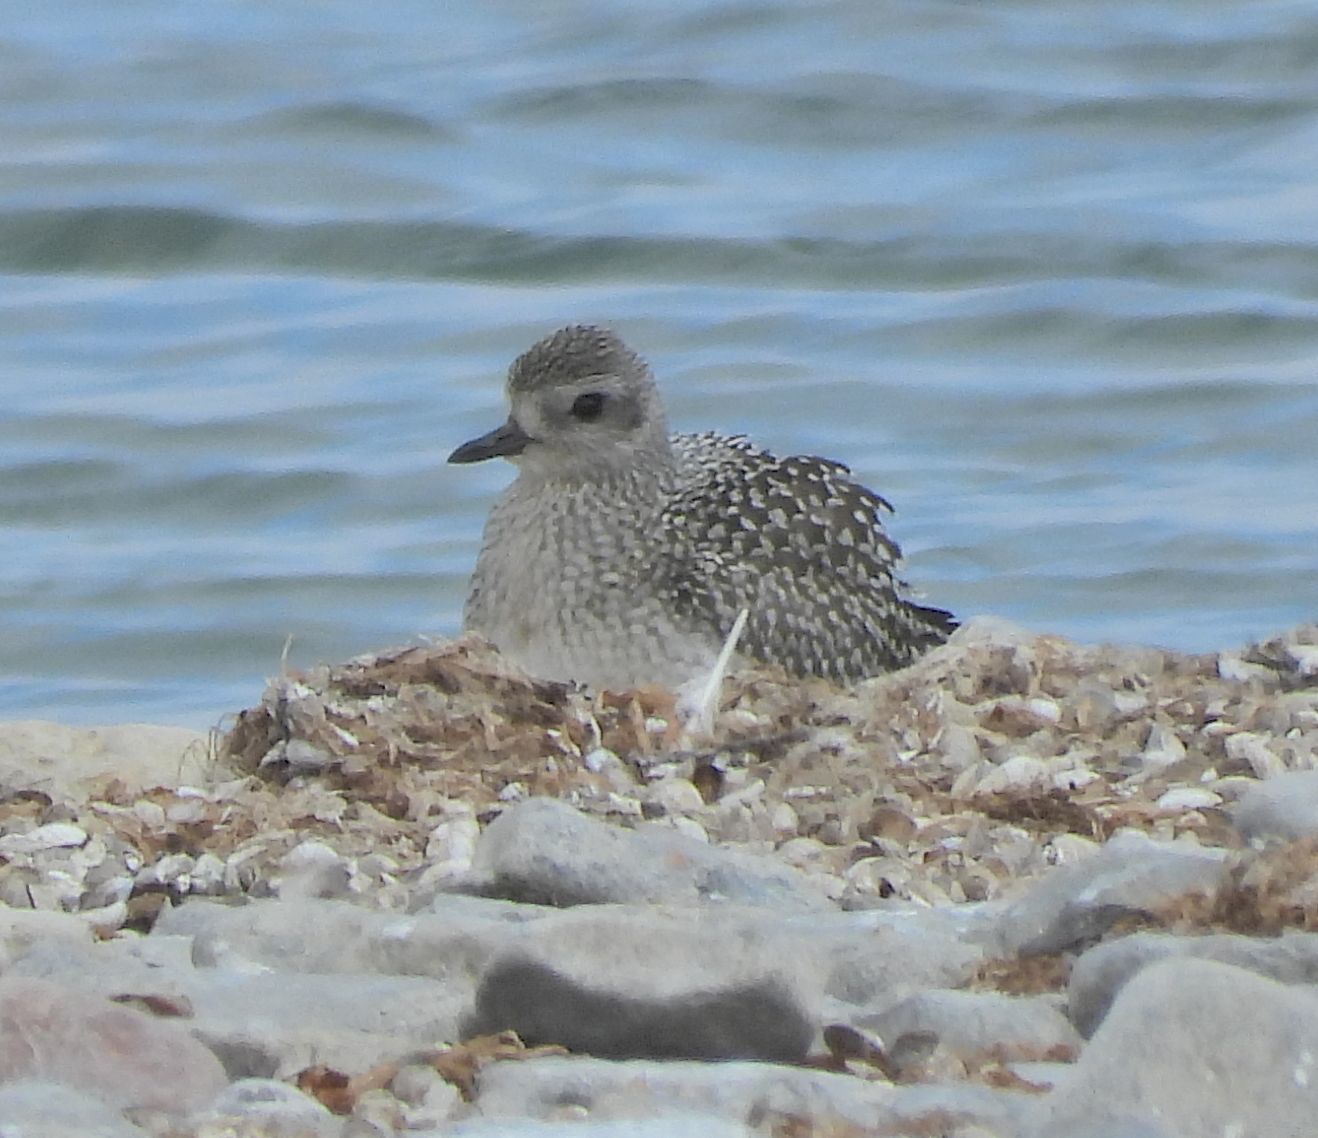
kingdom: Animalia
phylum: Chordata
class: Aves
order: Charadriiformes
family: Charadriidae
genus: Pluvialis
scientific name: Pluvialis squatarola
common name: Grey plover
